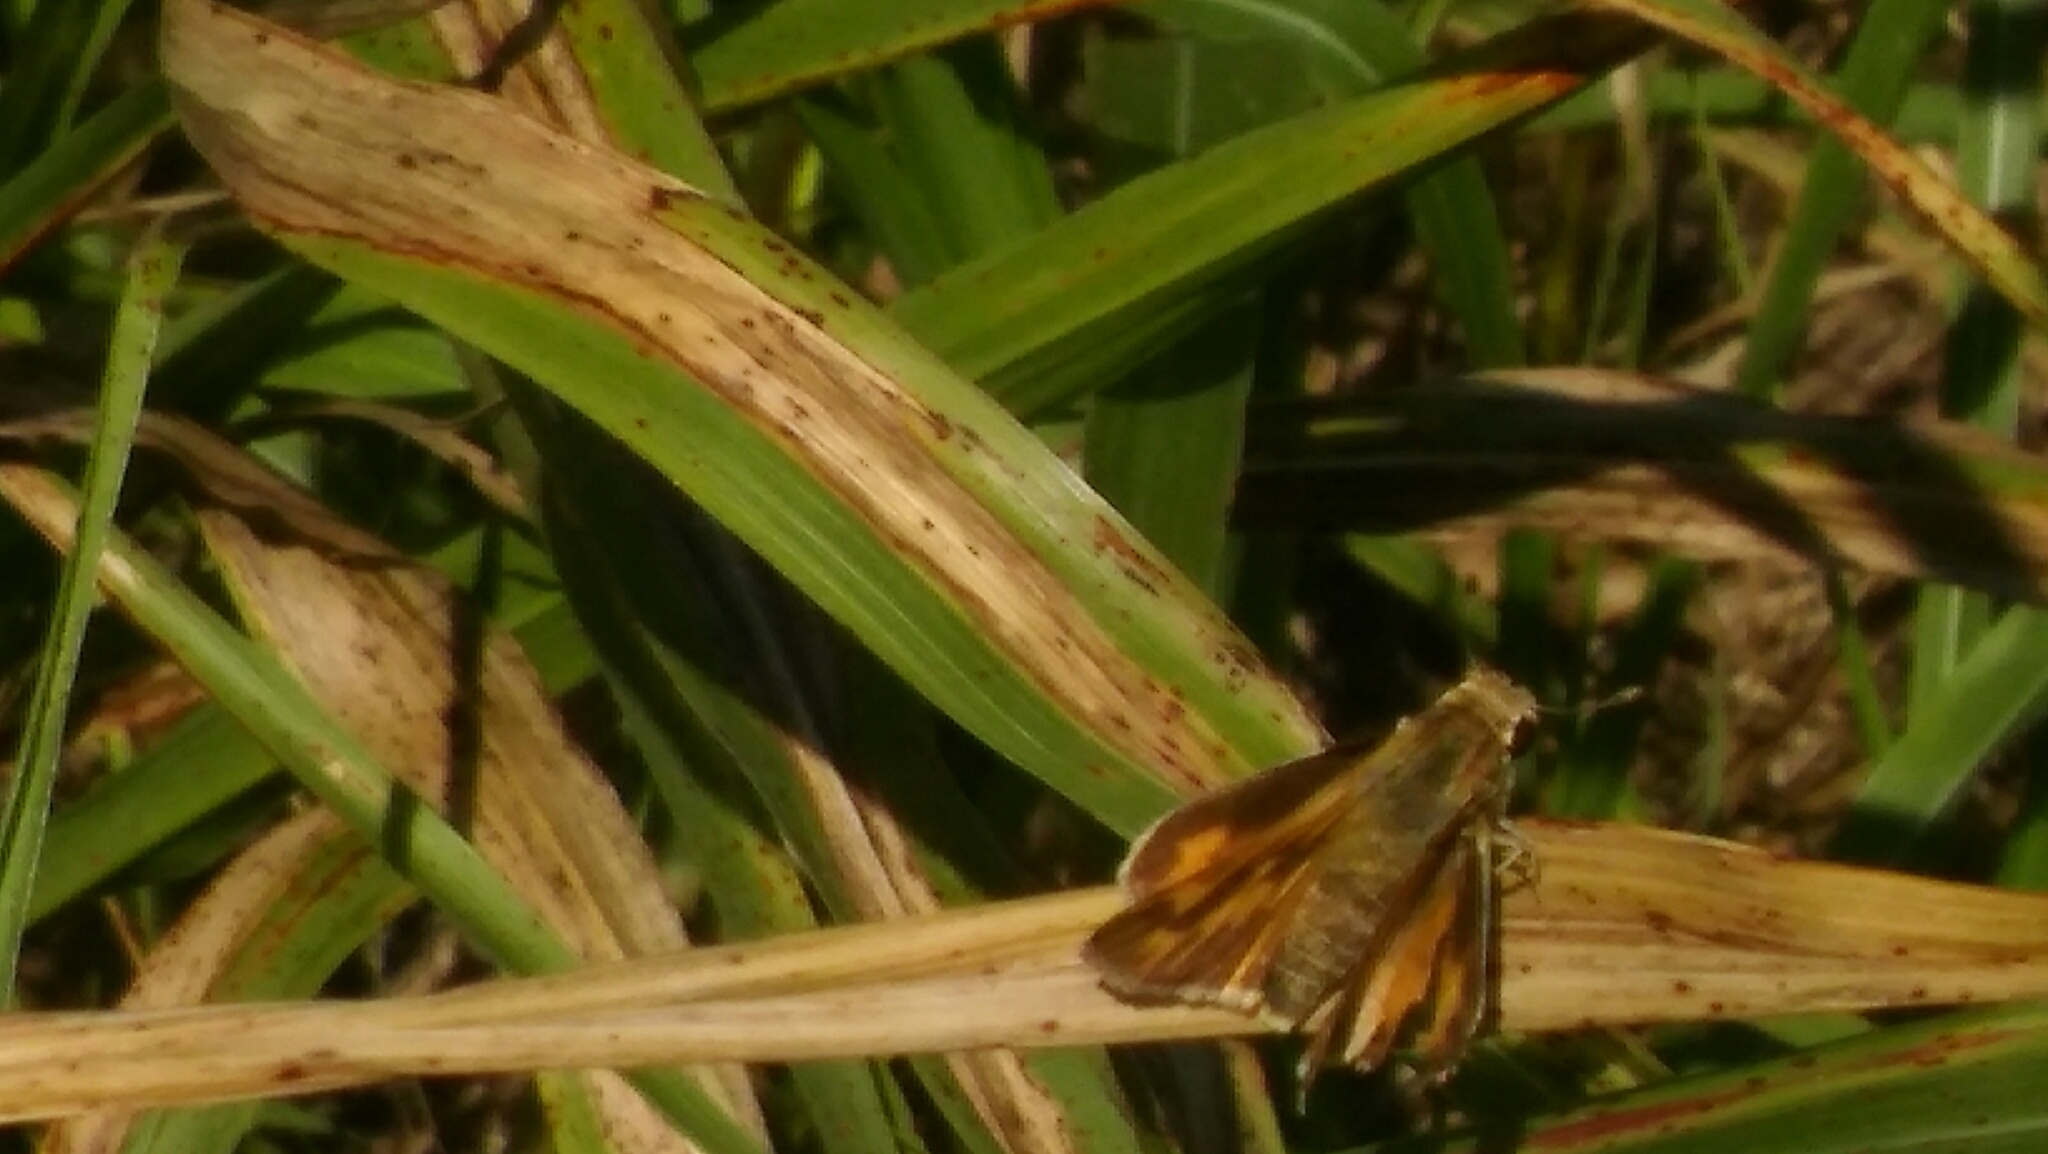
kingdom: Animalia
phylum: Arthropoda
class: Insecta
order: Lepidoptera
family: Hesperiidae
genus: Hylephila
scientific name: Hylephila phyleus
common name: Fiery skipper
